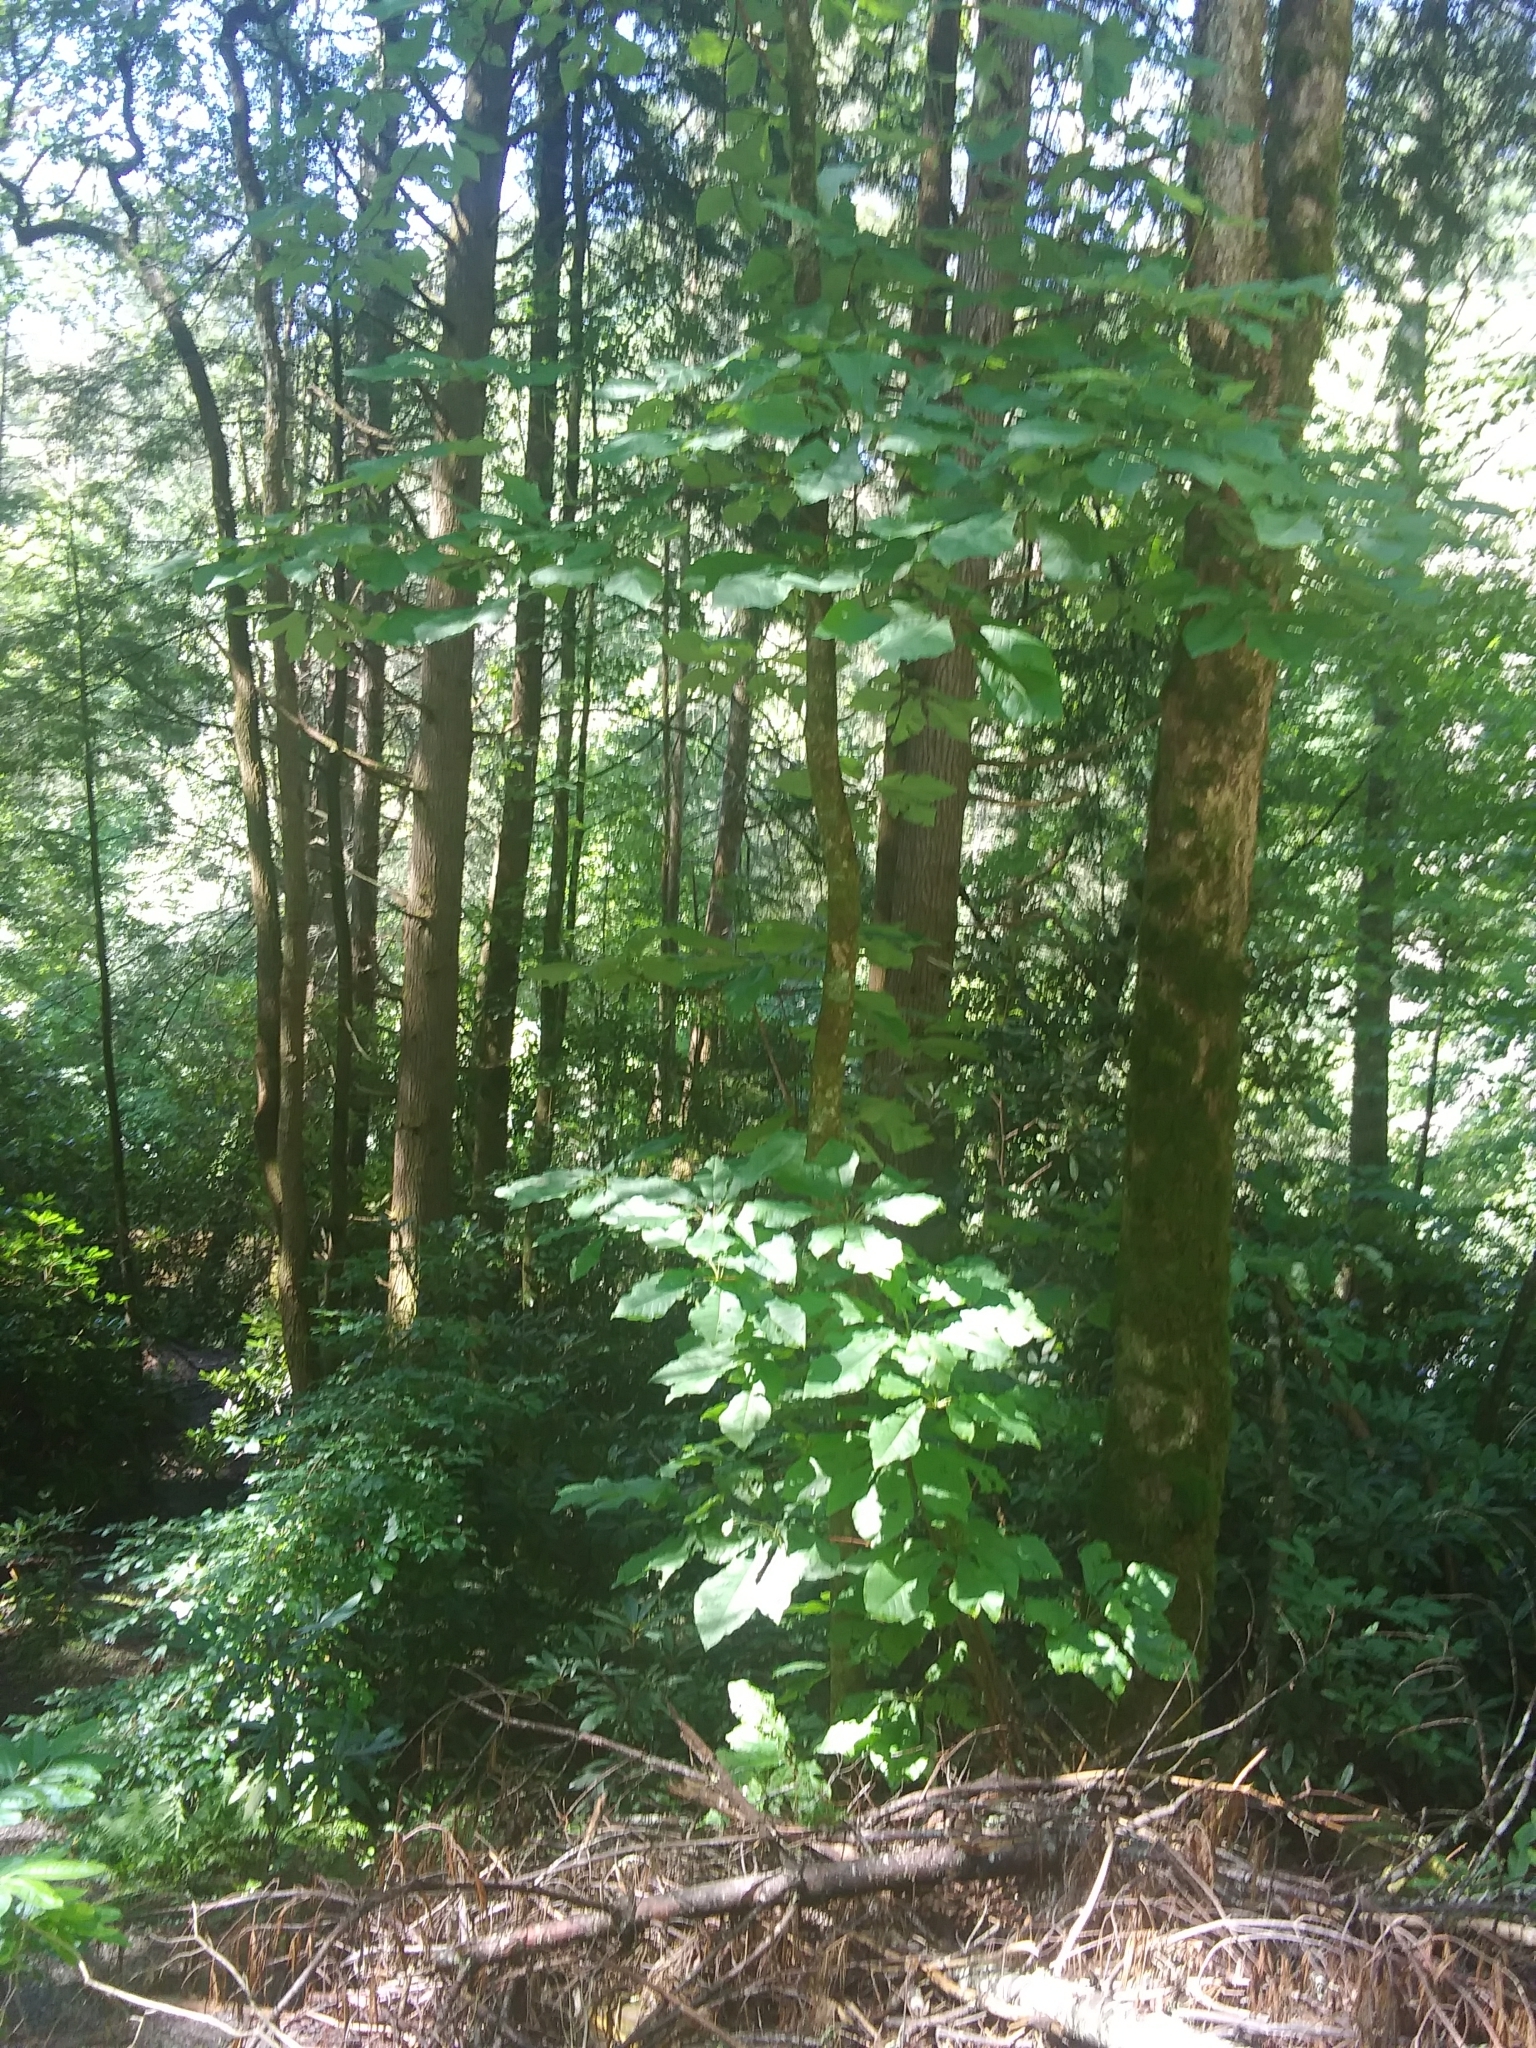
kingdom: Plantae
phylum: Tracheophyta
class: Magnoliopsida
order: Magnoliales
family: Magnoliaceae
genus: Magnolia
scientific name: Magnolia fraseri
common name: Fraser's magnolia
